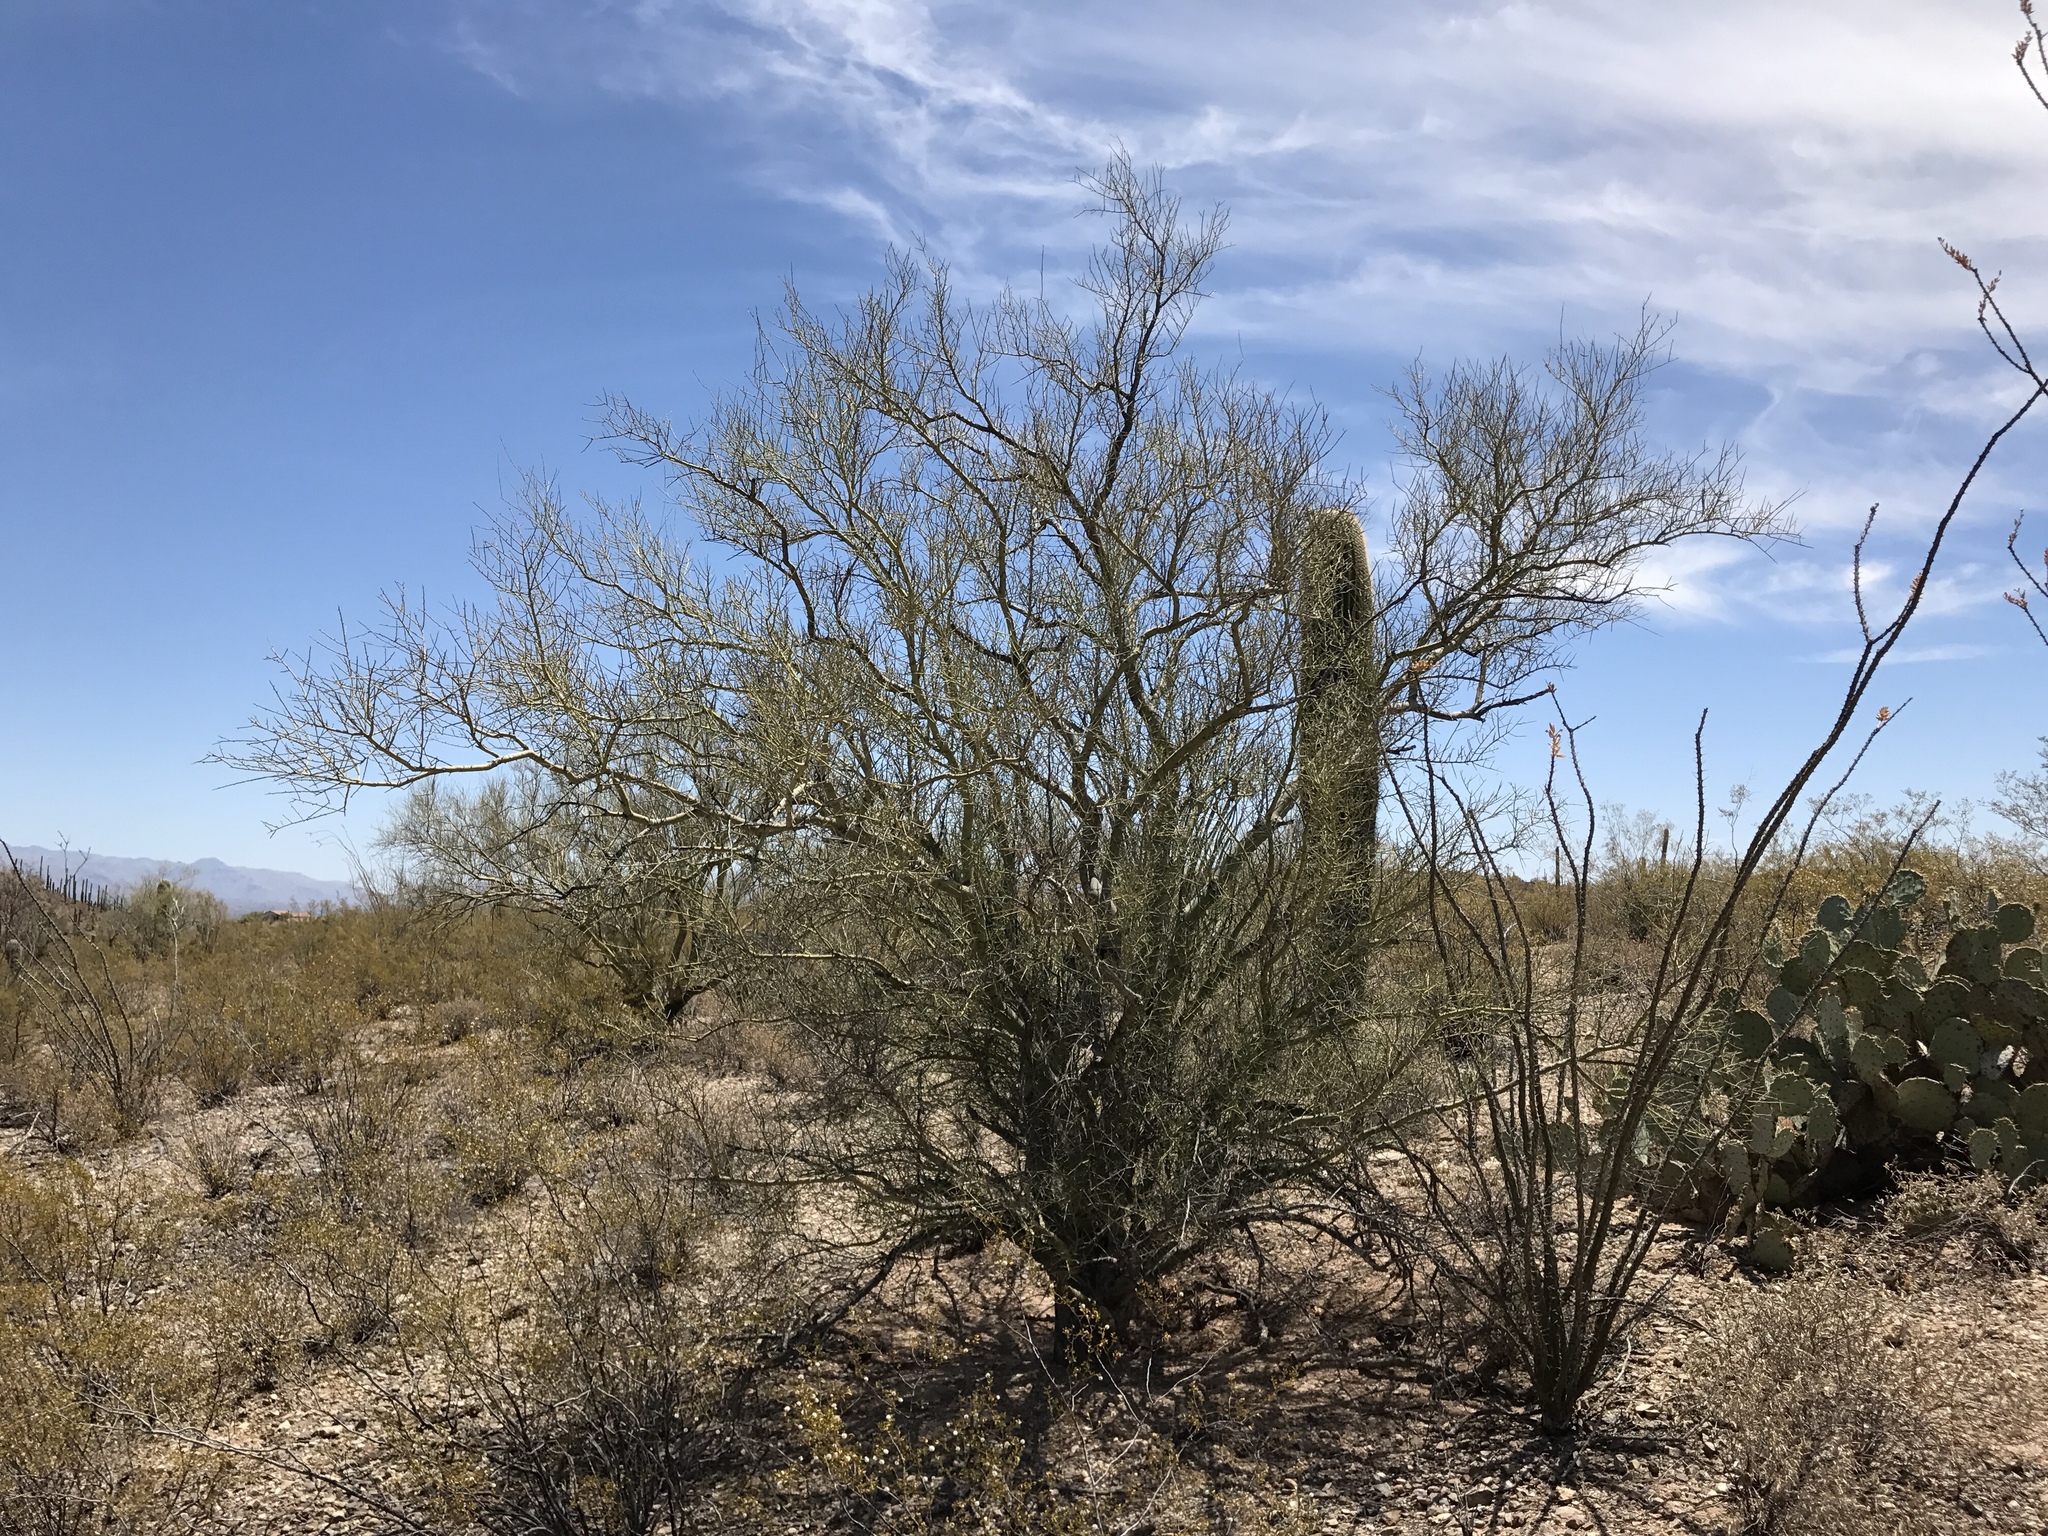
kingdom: Plantae
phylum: Tracheophyta
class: Magnoliopsida
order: Fabales
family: Fabaceae
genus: Parkinsonia
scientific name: Parkinsonia microphylla
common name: Yellow paloverde
